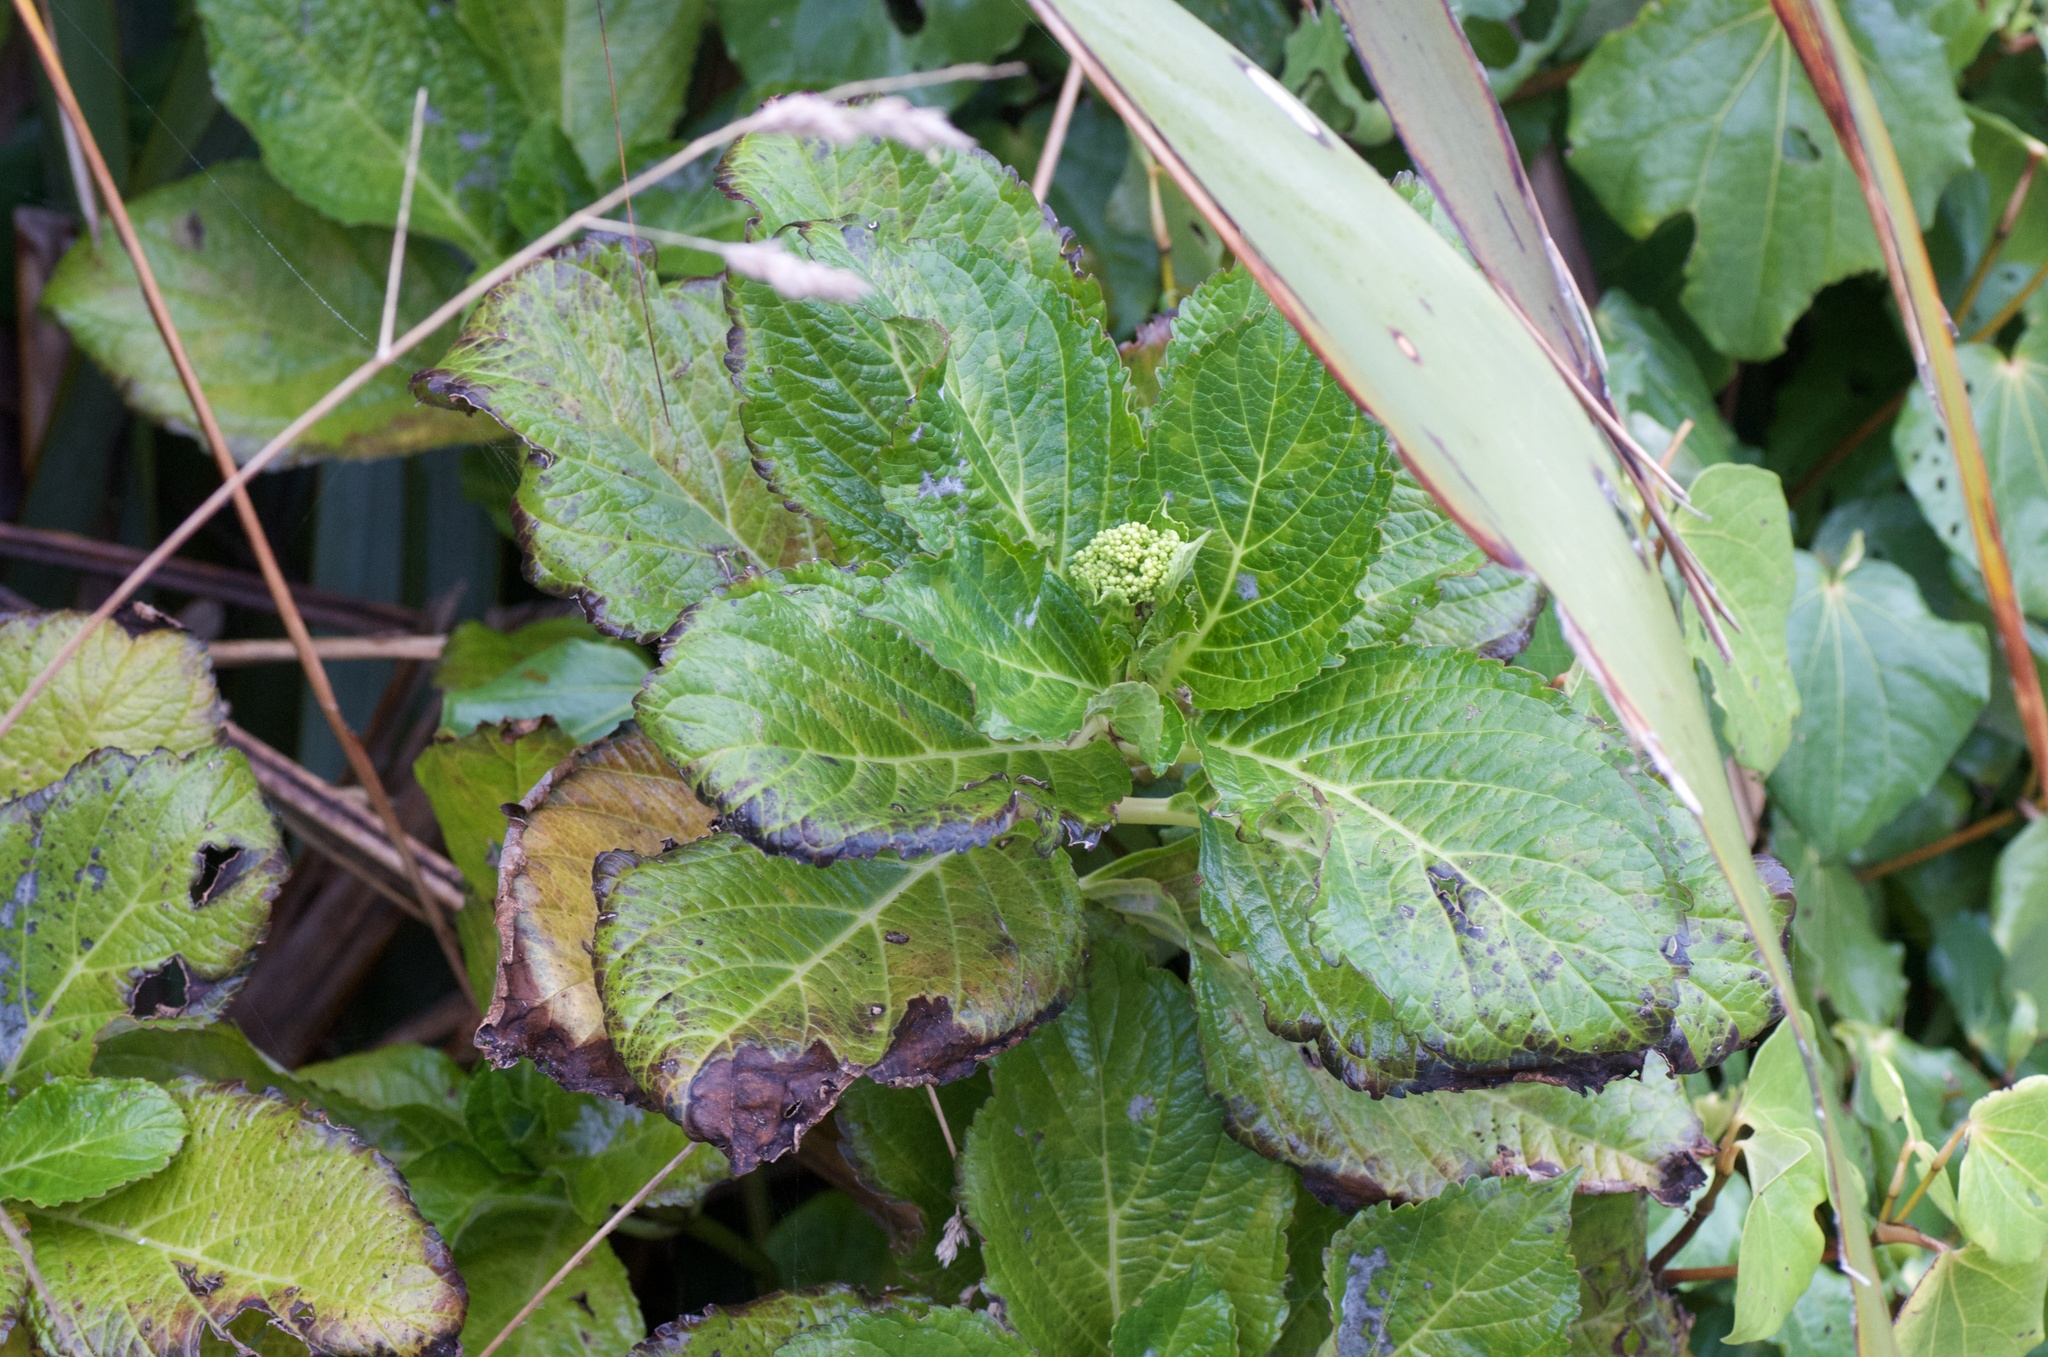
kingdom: Plantae
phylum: Tracheophyta
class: Magnoliopsida
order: Cornales
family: Hydrangeaceae
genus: Hydrangea
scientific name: Hydrangea
